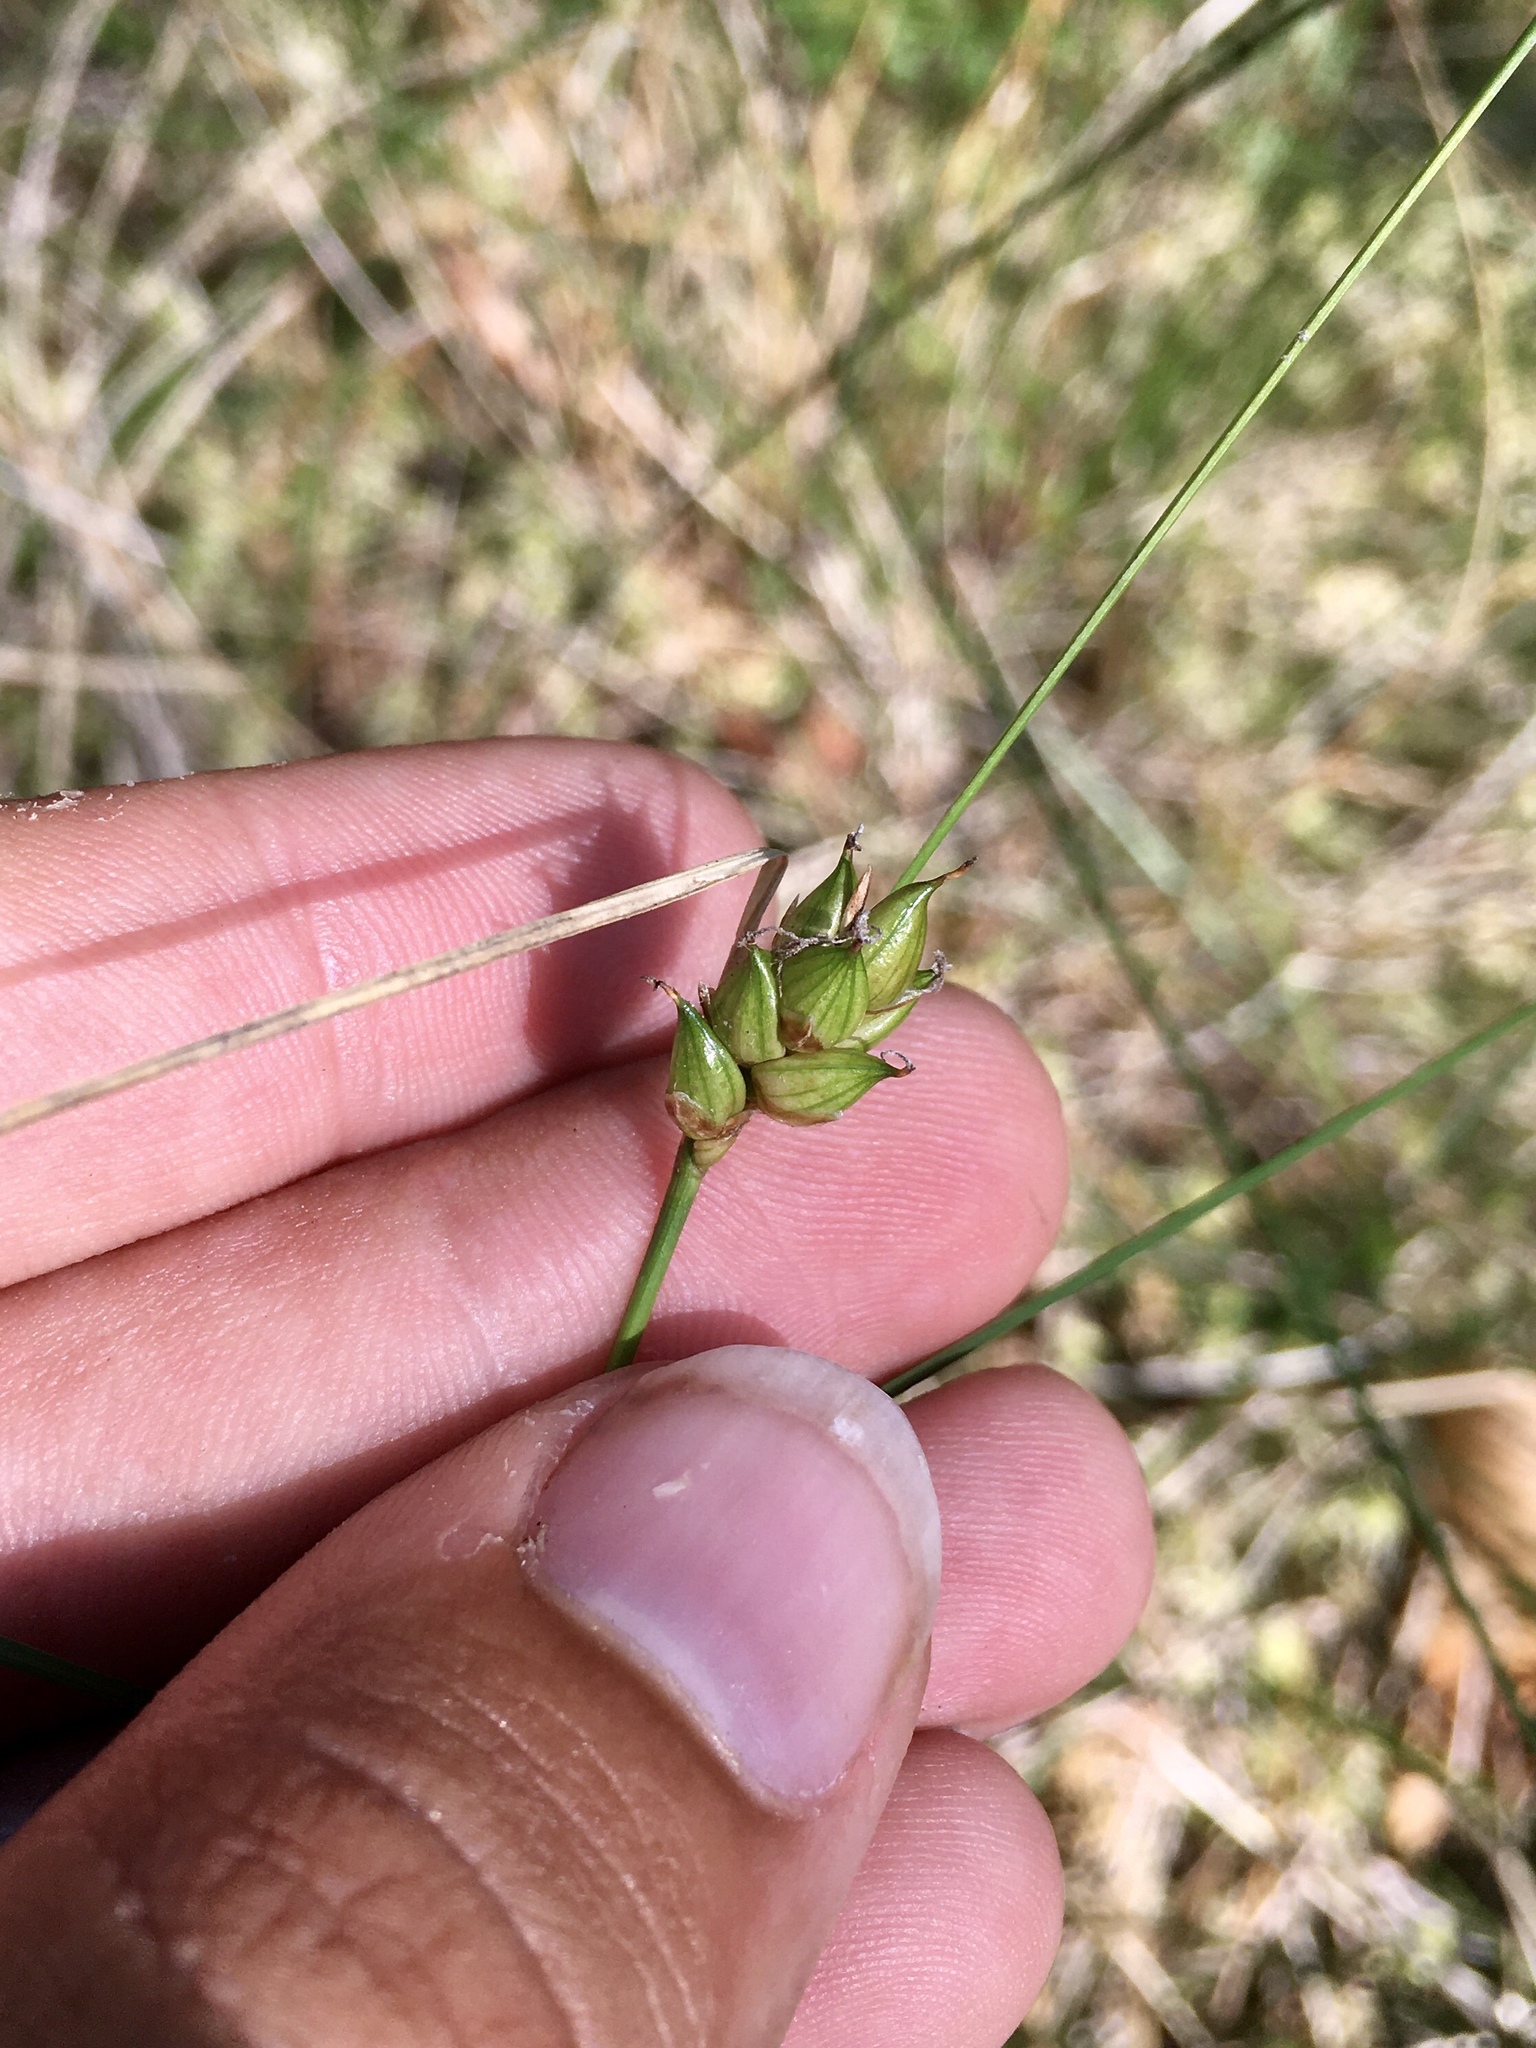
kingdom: Plantae
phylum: Tracheophyta
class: Liliopsida
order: Poales
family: Cyperaceae
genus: Carex
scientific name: Carex oligosperma
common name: Few-seed sedge
